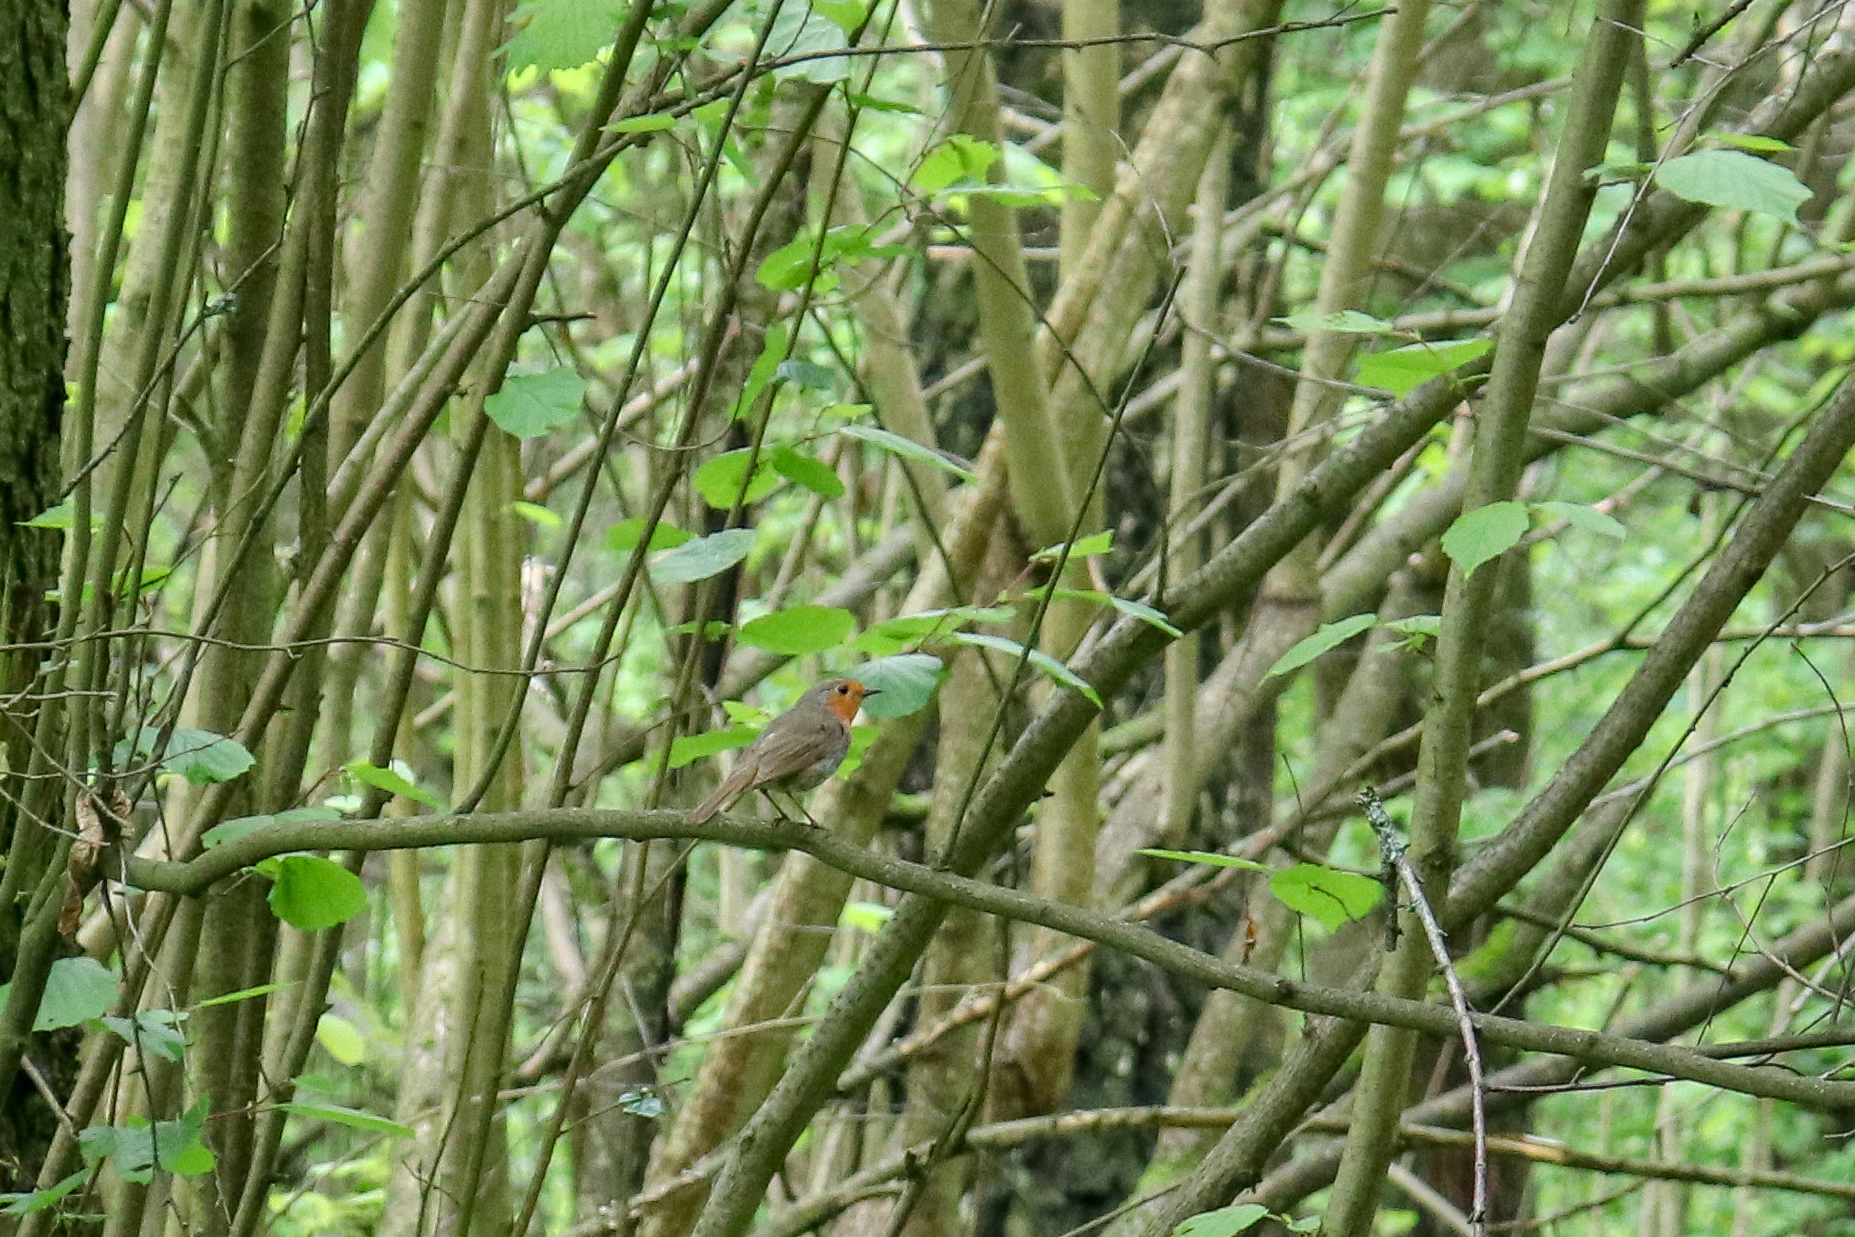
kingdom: Animalia
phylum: Chordata
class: Aves
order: Passeriformes
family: Muscicapidae
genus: Erithacus
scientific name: Erithacus rubecula
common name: European robin
